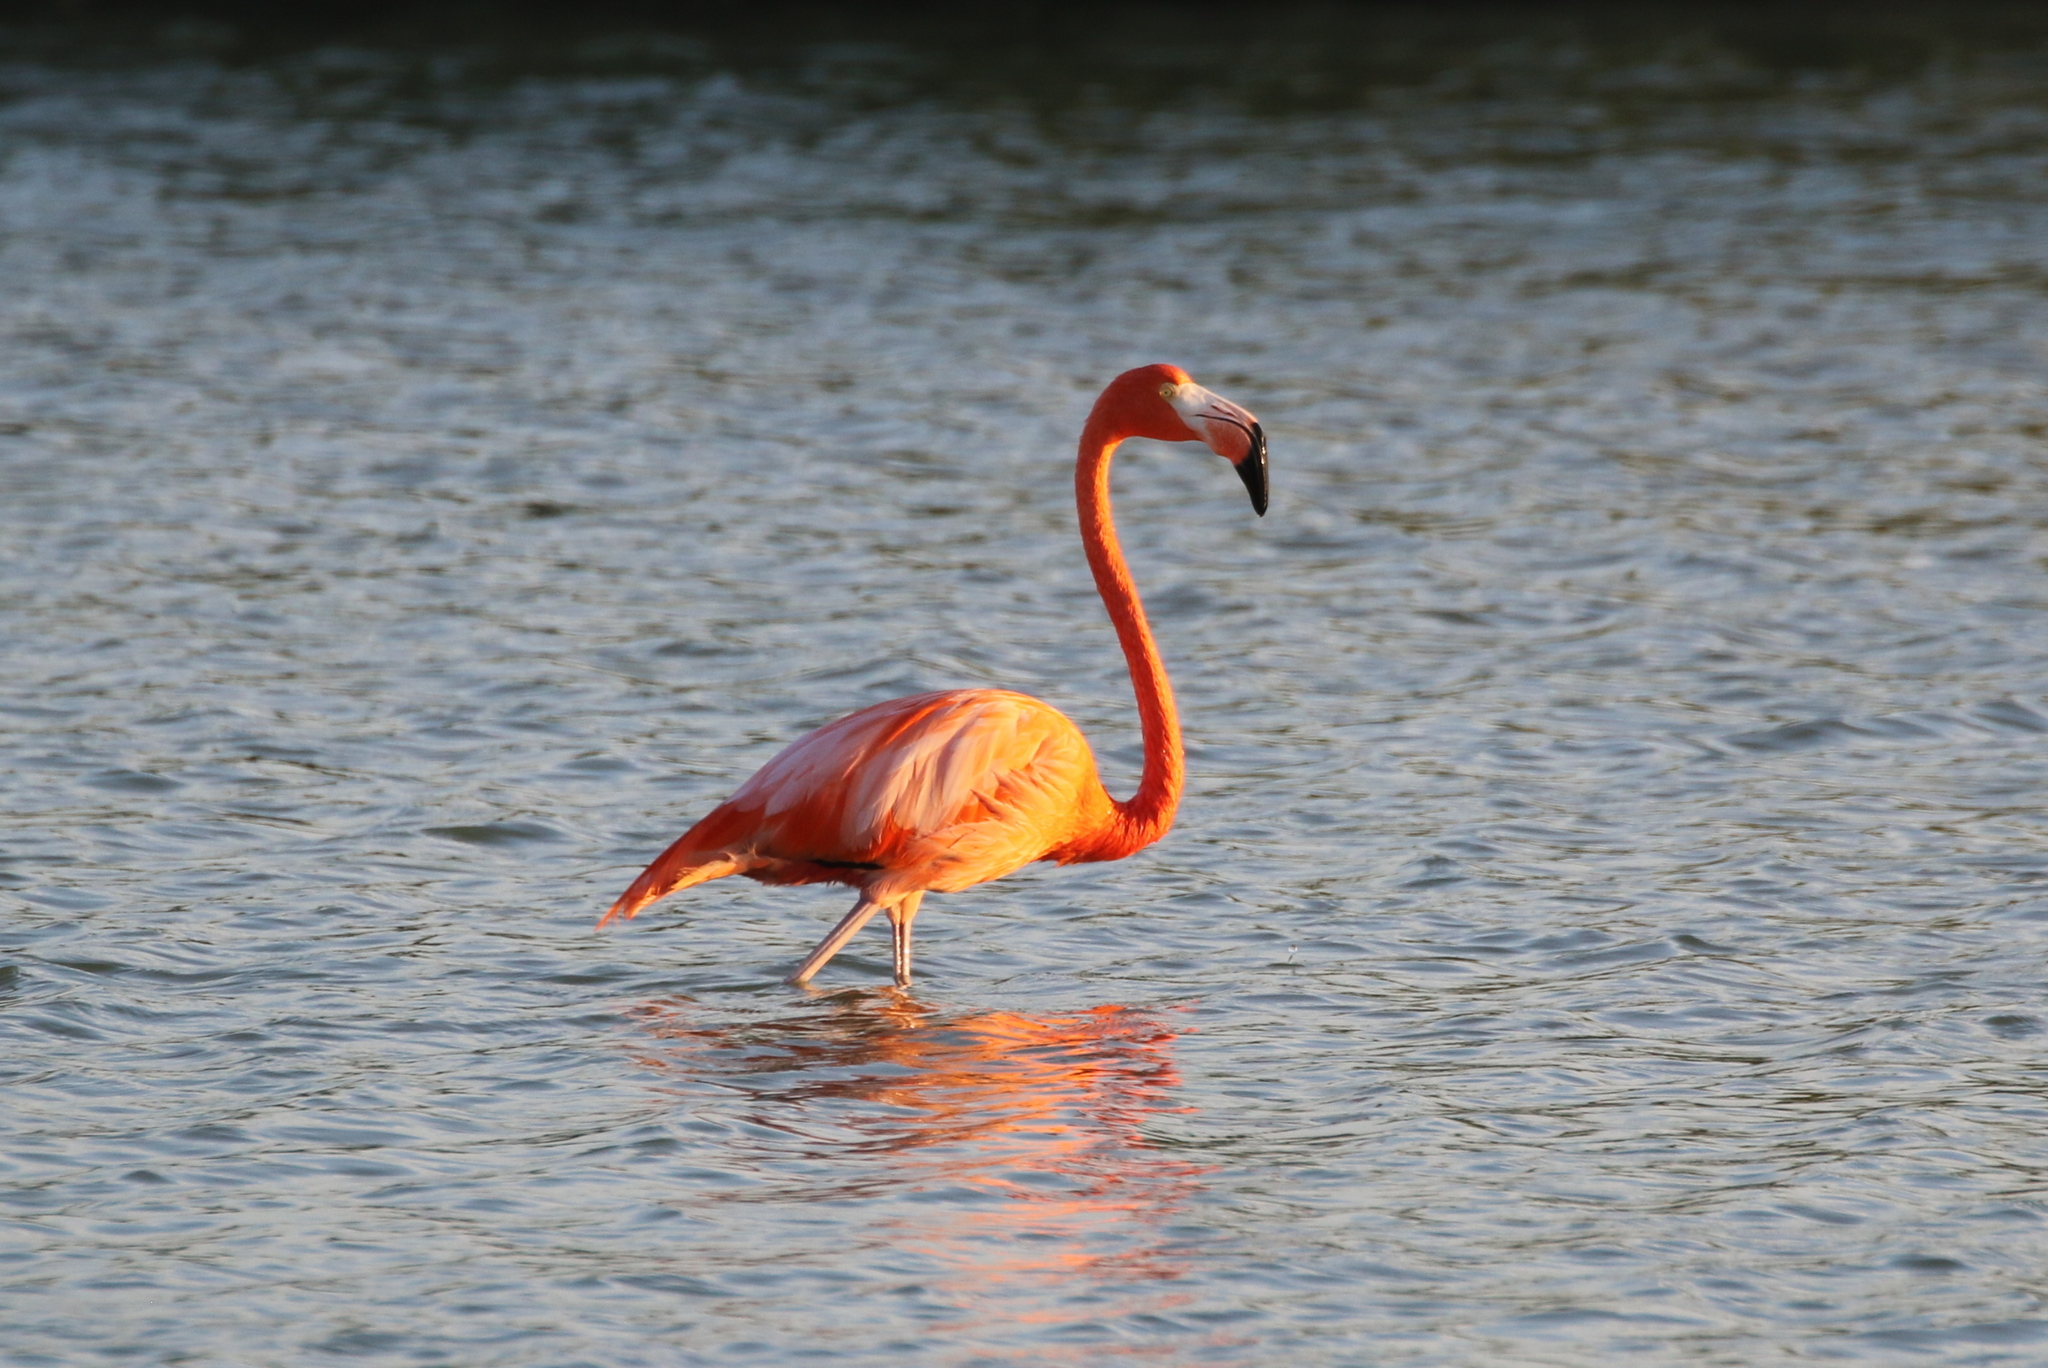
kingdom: Animalia
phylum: Chordata
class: Aves
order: Phoenicopteriformes
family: Phoenicopteridae
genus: Phoenicopterus
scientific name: Phoenicopterus ruber
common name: American flamingo
